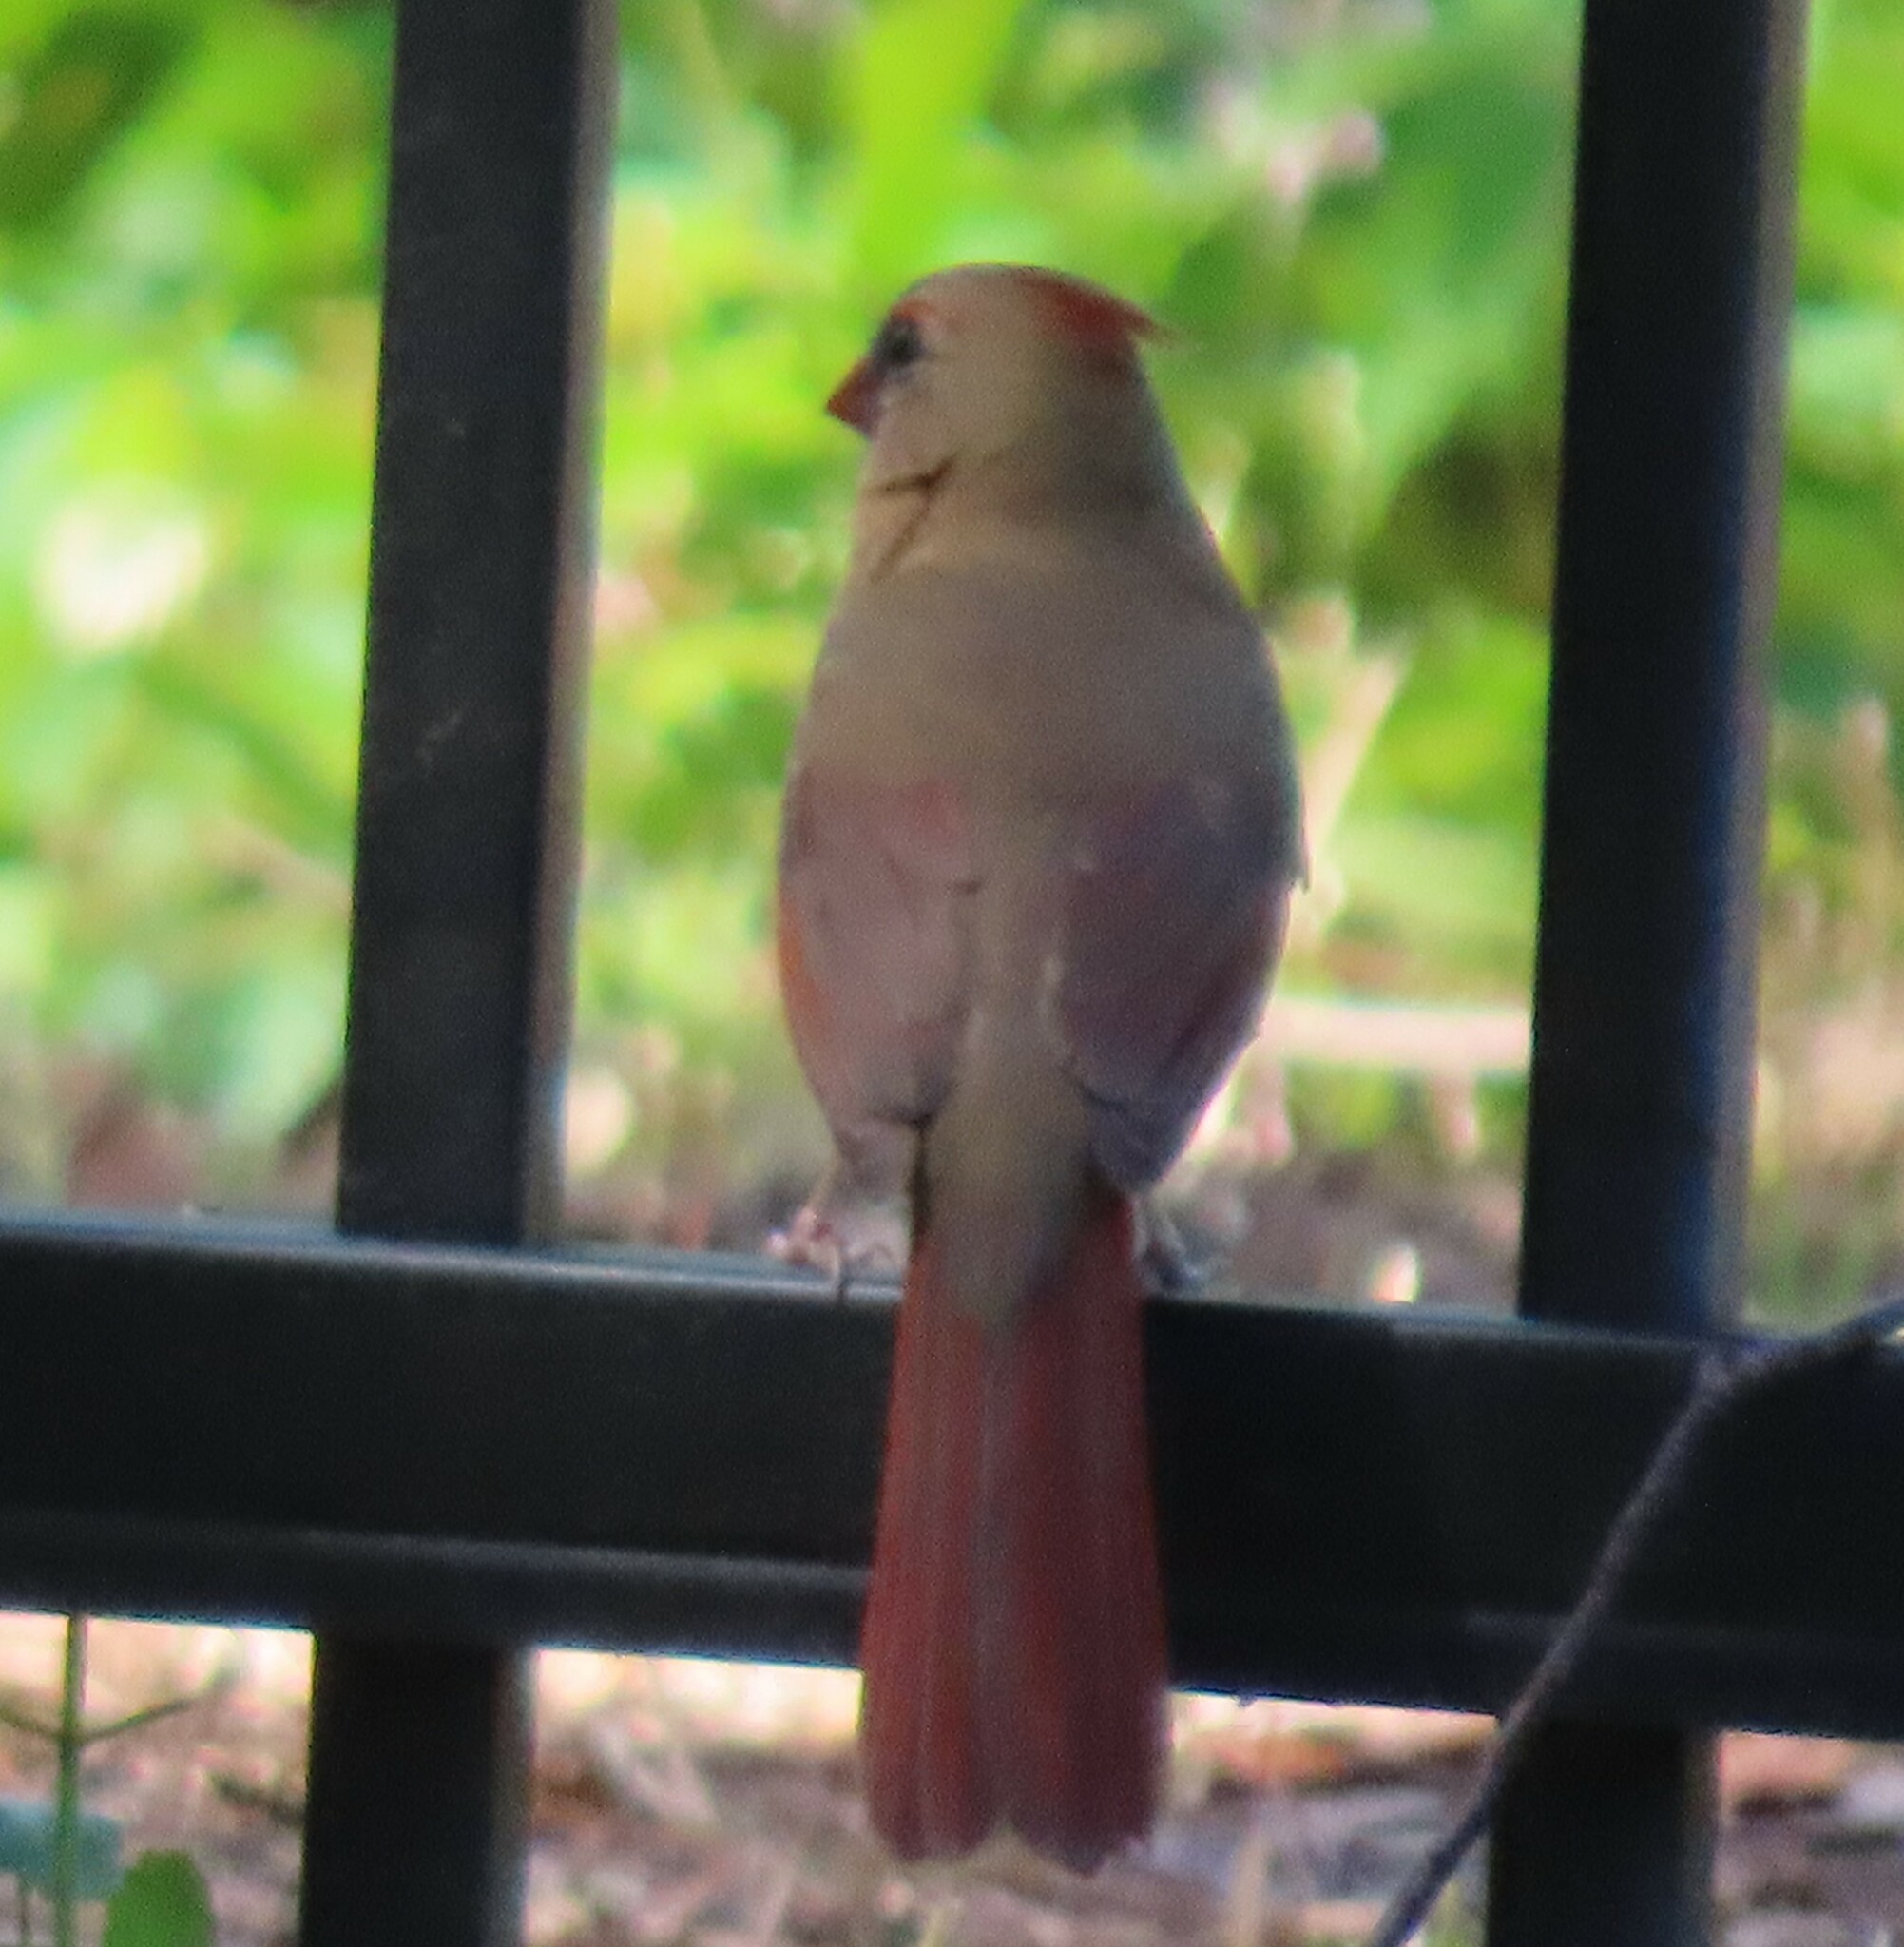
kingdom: Animalia
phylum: Chordata
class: Aves
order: Passeriformes
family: Cardinalidae
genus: Cardinalis
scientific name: Cardinalis cardinalis
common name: Northern cardinal
